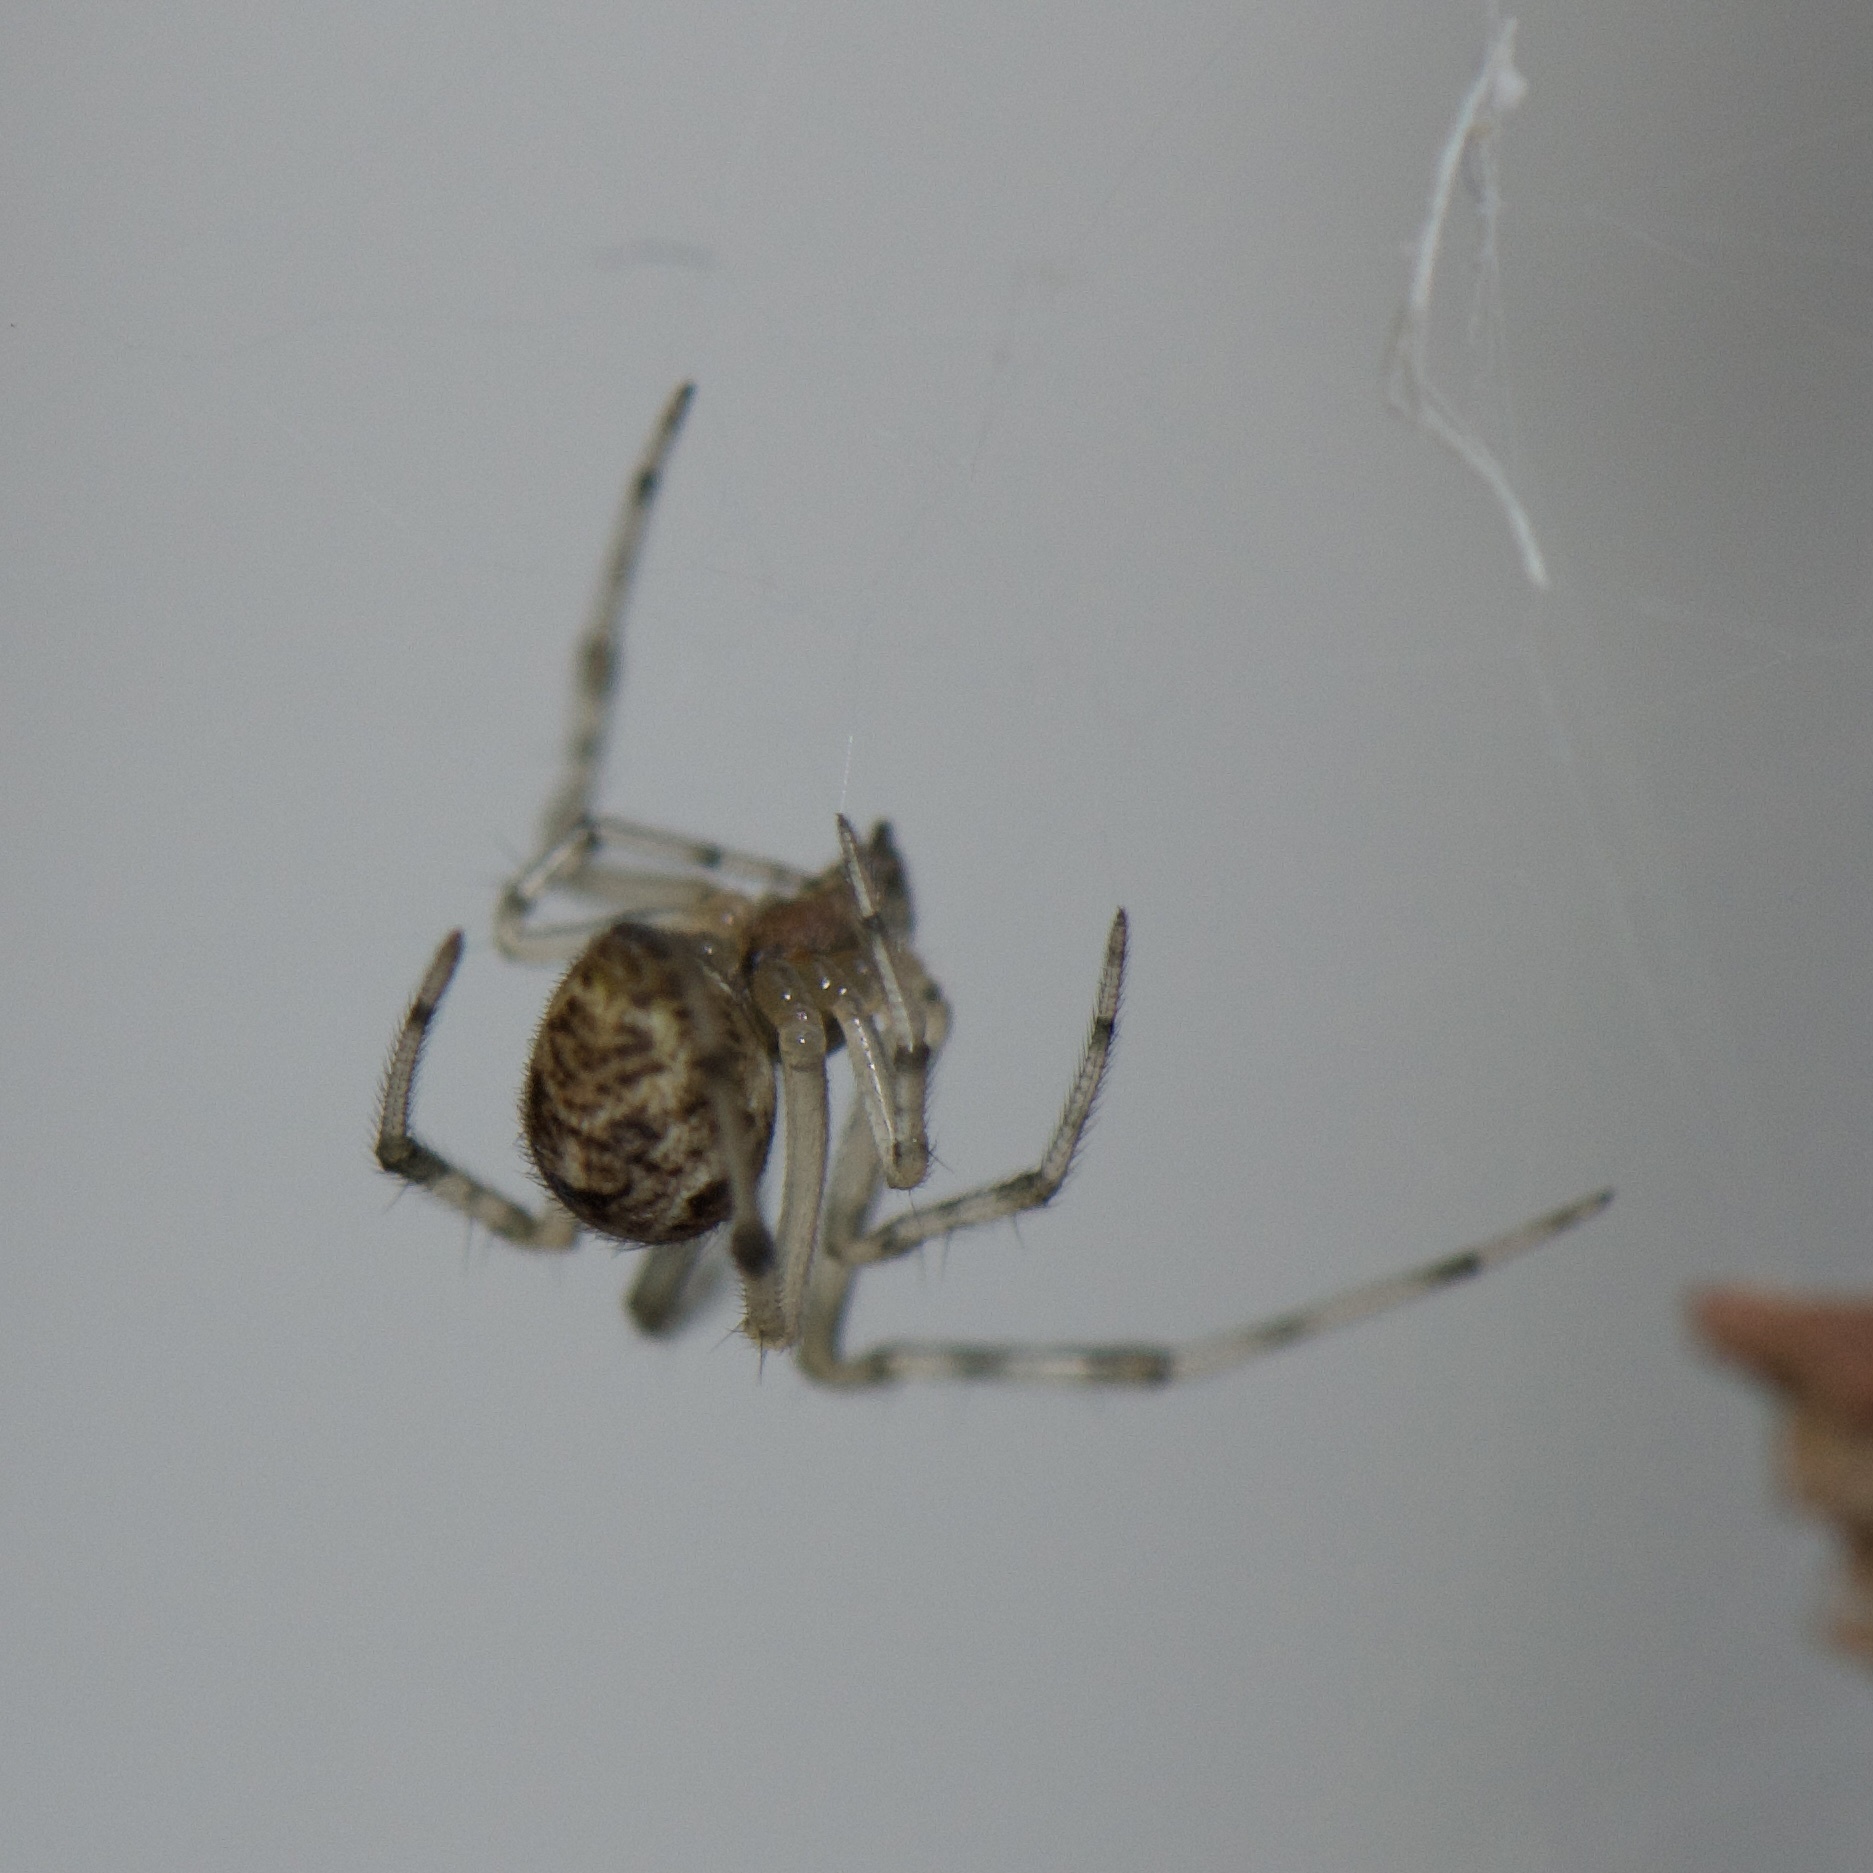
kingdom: Animalia
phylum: Arthropoda
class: Arachnida
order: Araneae
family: Theridiidae
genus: Parasteatoda
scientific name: Parasteatoda tepidariorum
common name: Common house spider
